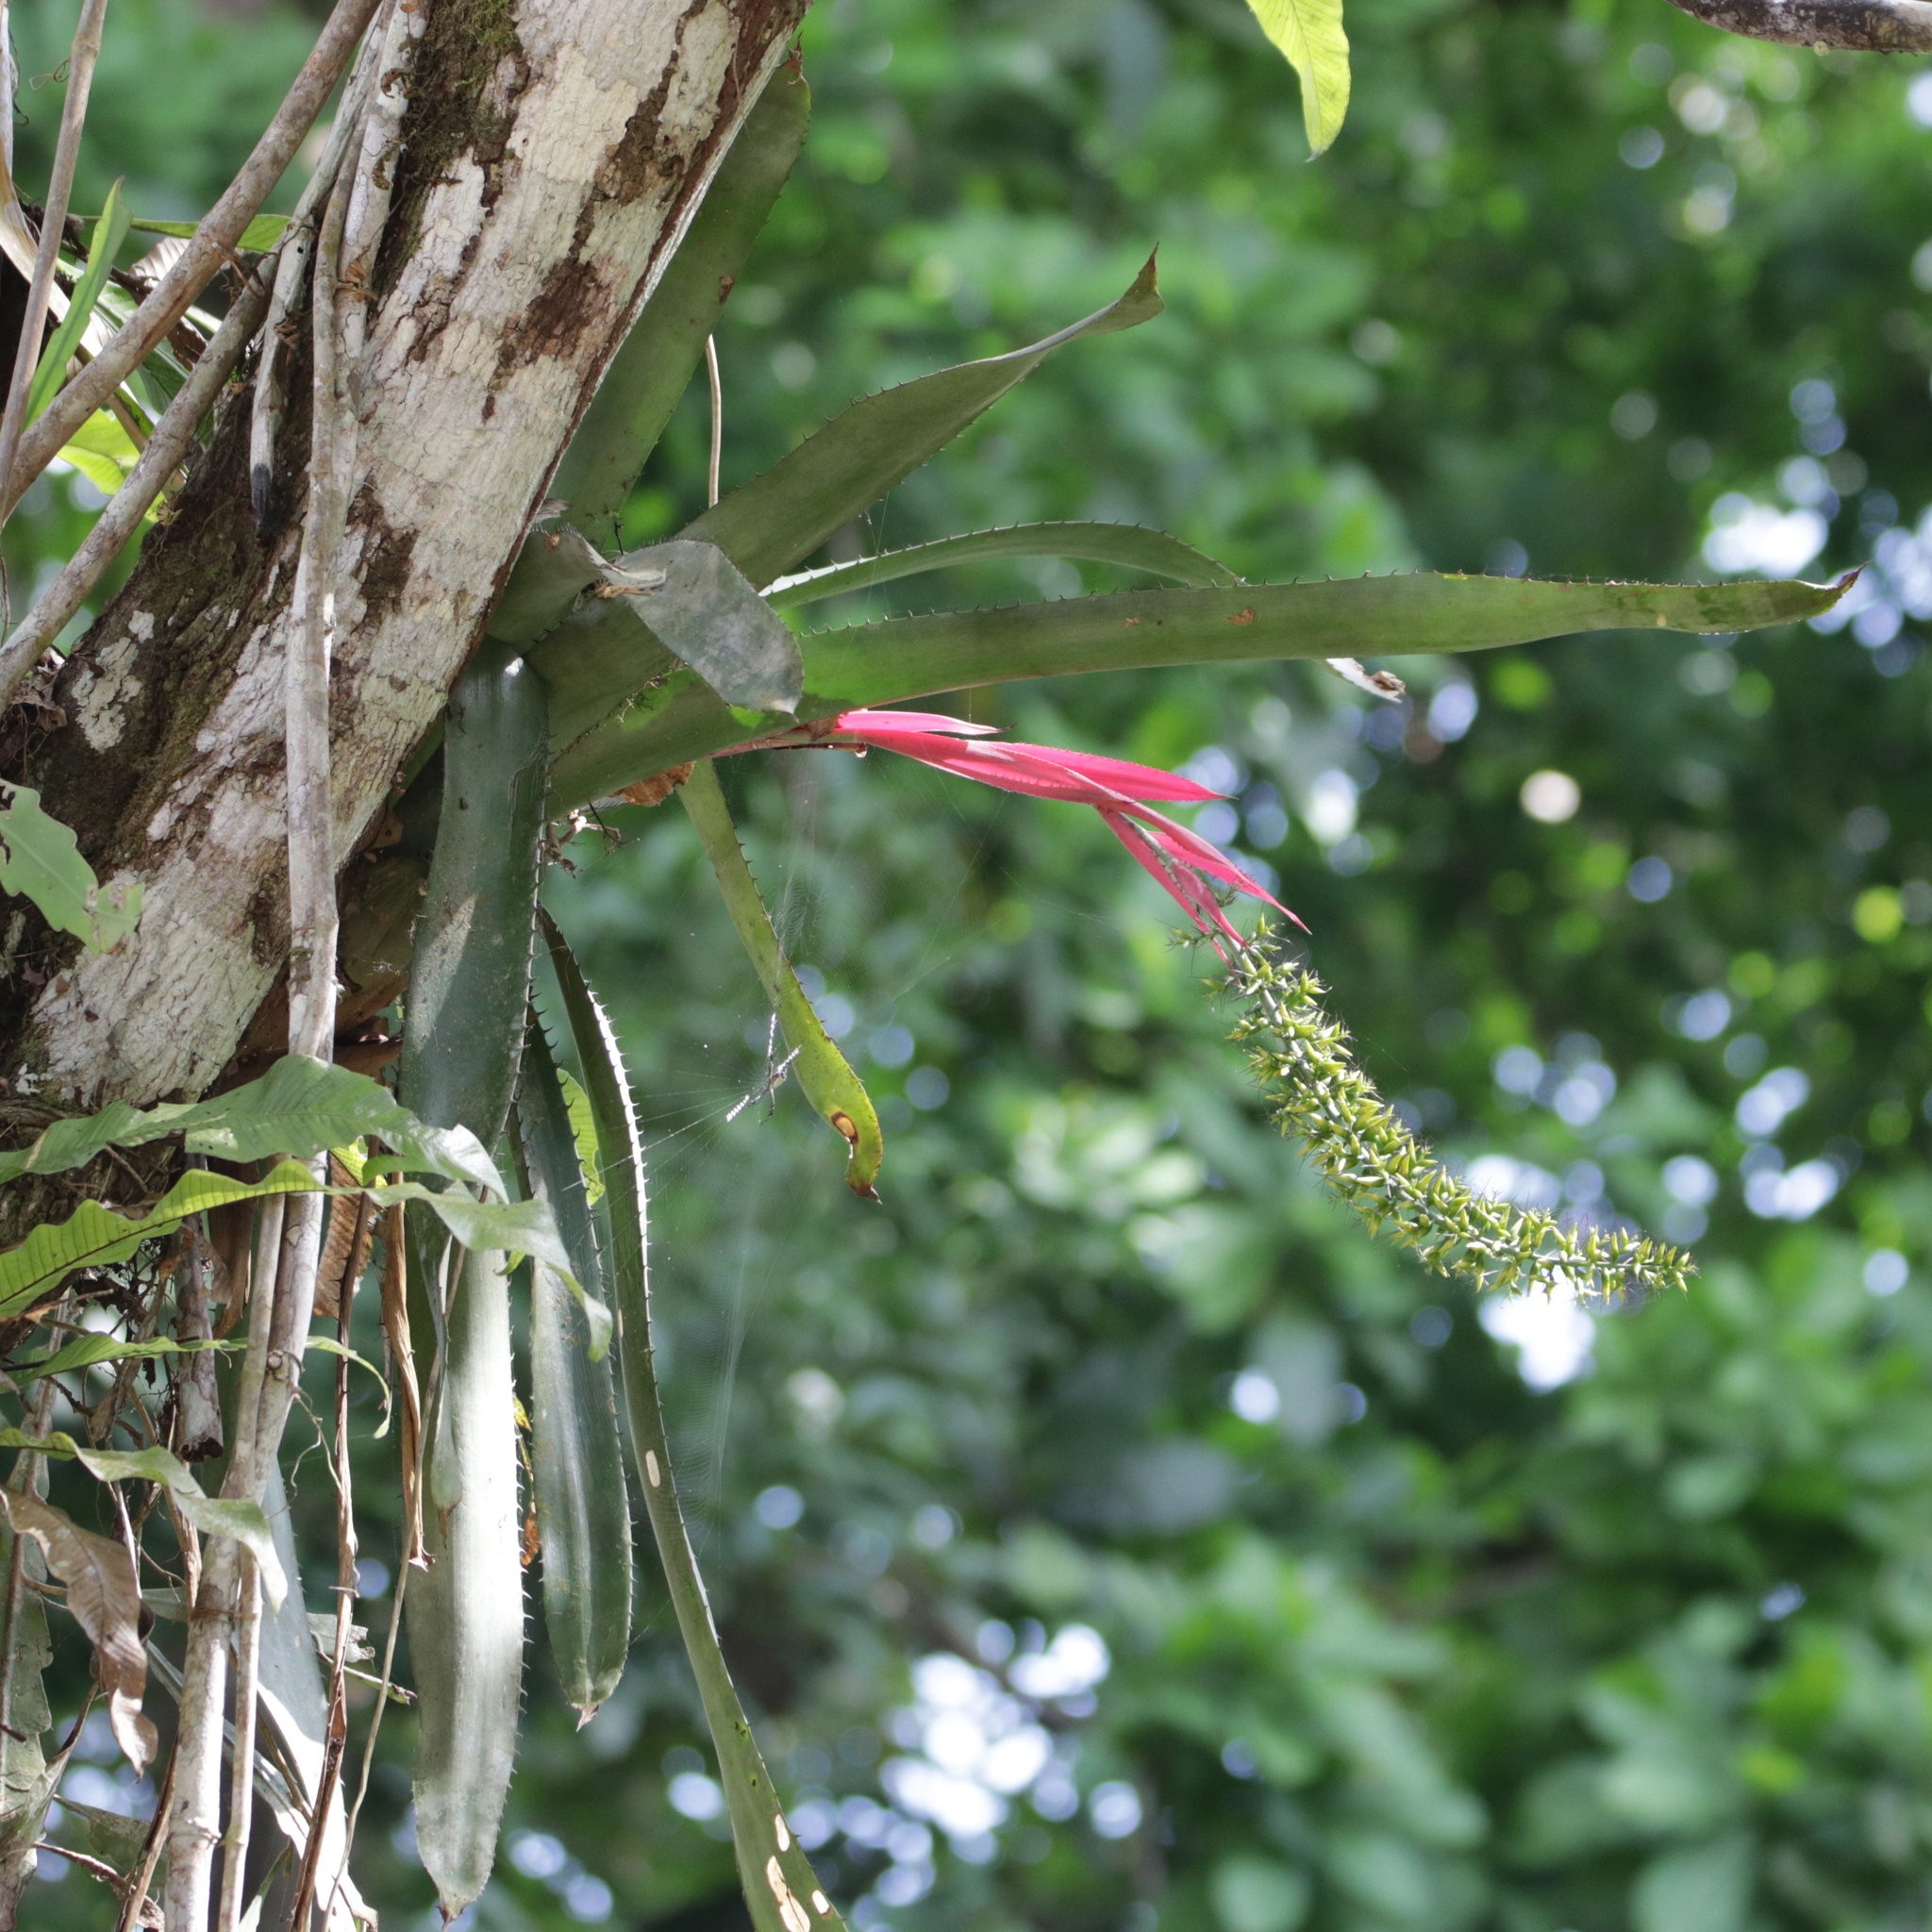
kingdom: Plantae
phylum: Tracheophyta
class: Liliopsida
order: Poales
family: Bromeliaceae
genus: Aechmea
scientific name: Aechmea setigera
